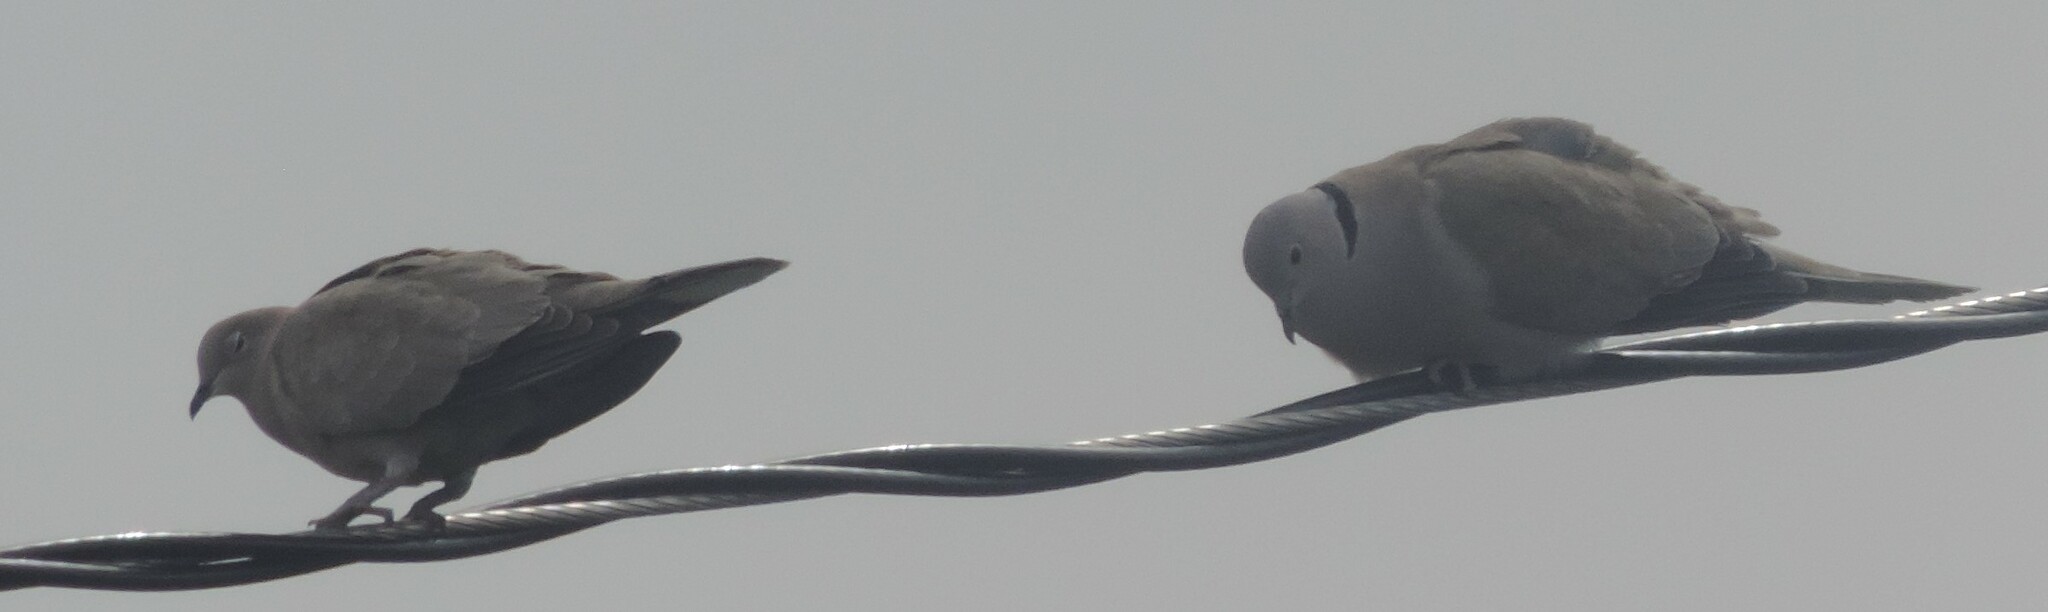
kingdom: Animalia
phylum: Chordata
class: Aves
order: Columbiformes
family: Columbidae
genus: Streptopelia
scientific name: Streptopelia decaocto
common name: Eurasian collared dove
